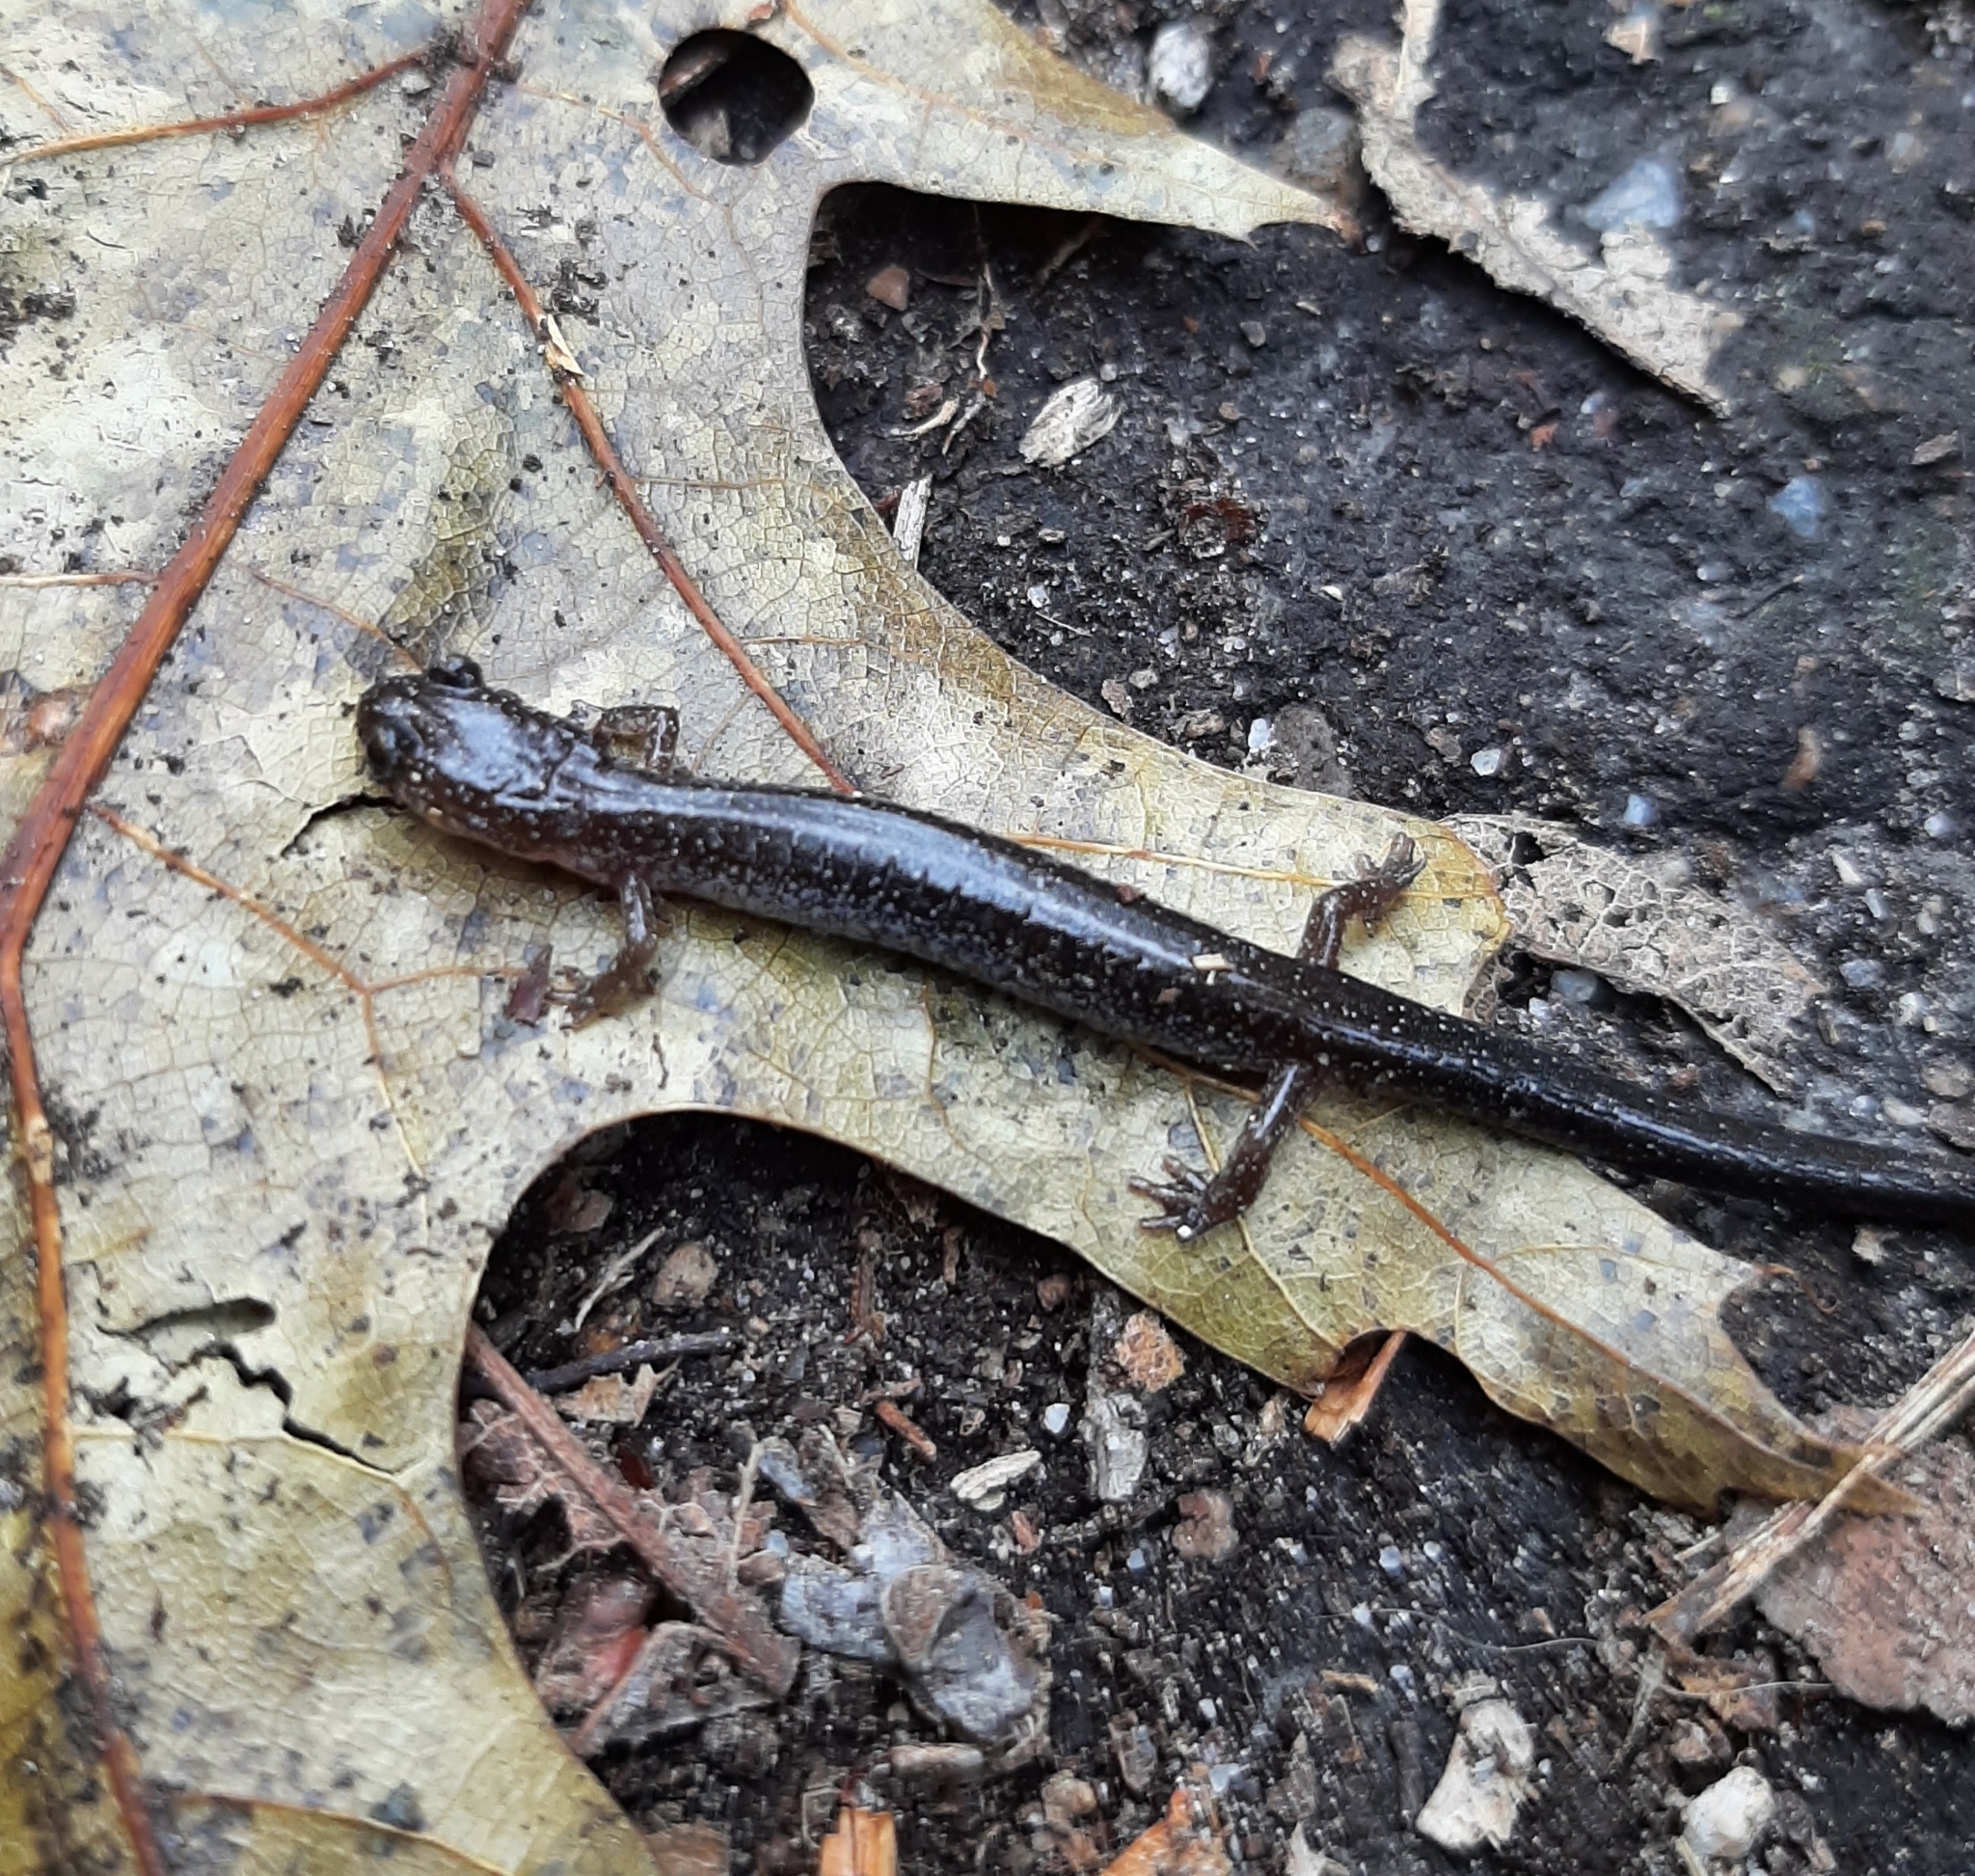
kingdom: Animalia
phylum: Chordata
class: Amphibia
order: Caudata
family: Plethodontidae
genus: Plethodon
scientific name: Plethodon cinereus
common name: Redback salamander
